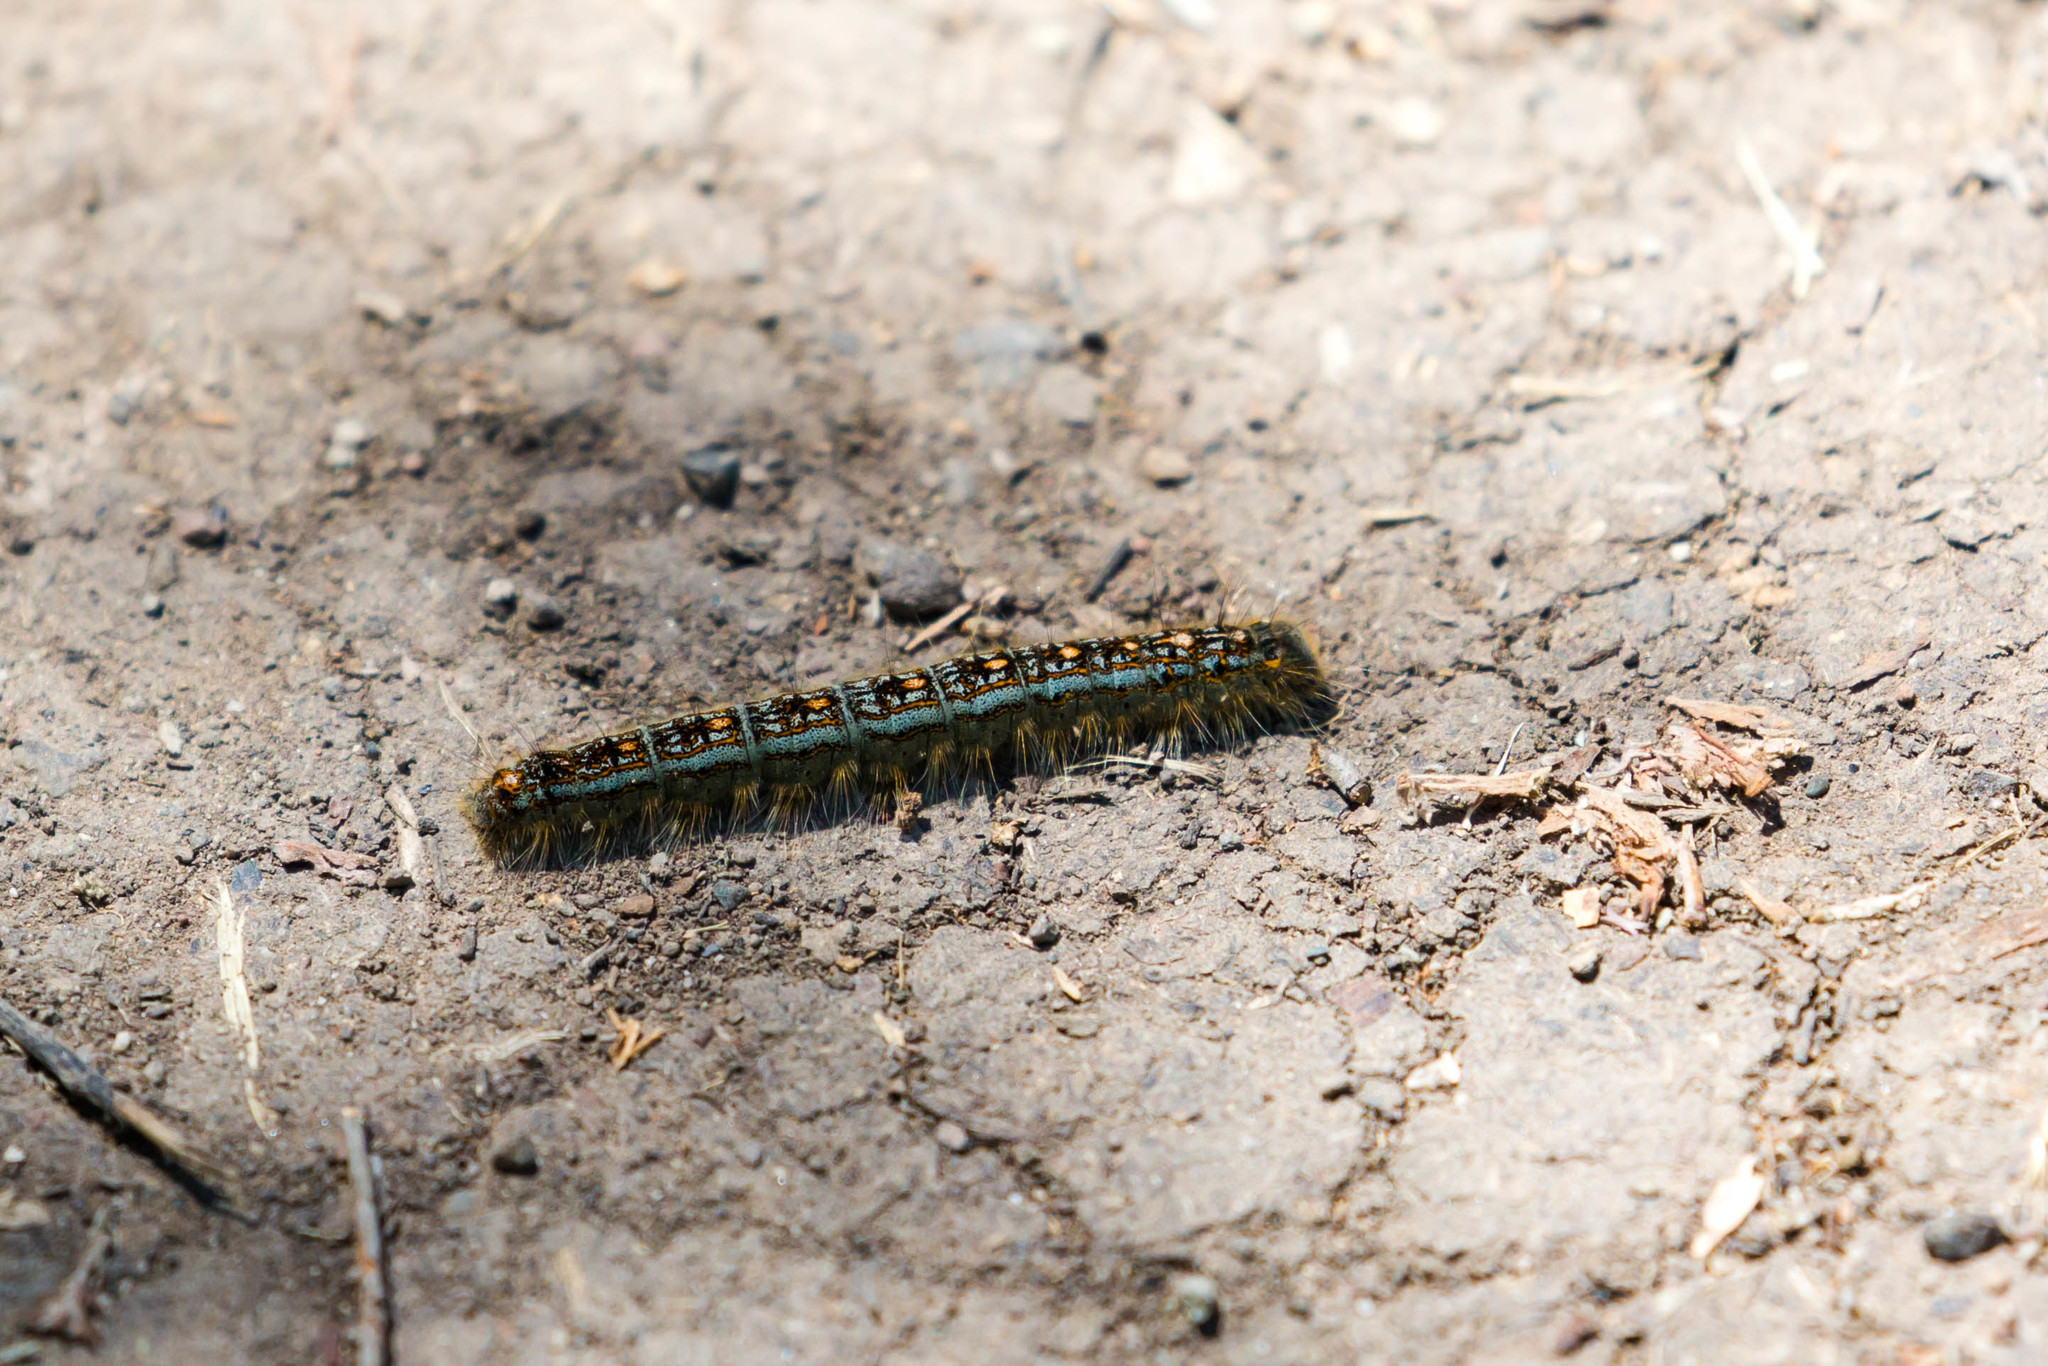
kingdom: Animalia
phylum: Arthropoda
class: Insecta
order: Lepidoptera
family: Lasiocampidae
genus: Malacosoma
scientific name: Malacosoma disstria
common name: Forest tent caterpillar
